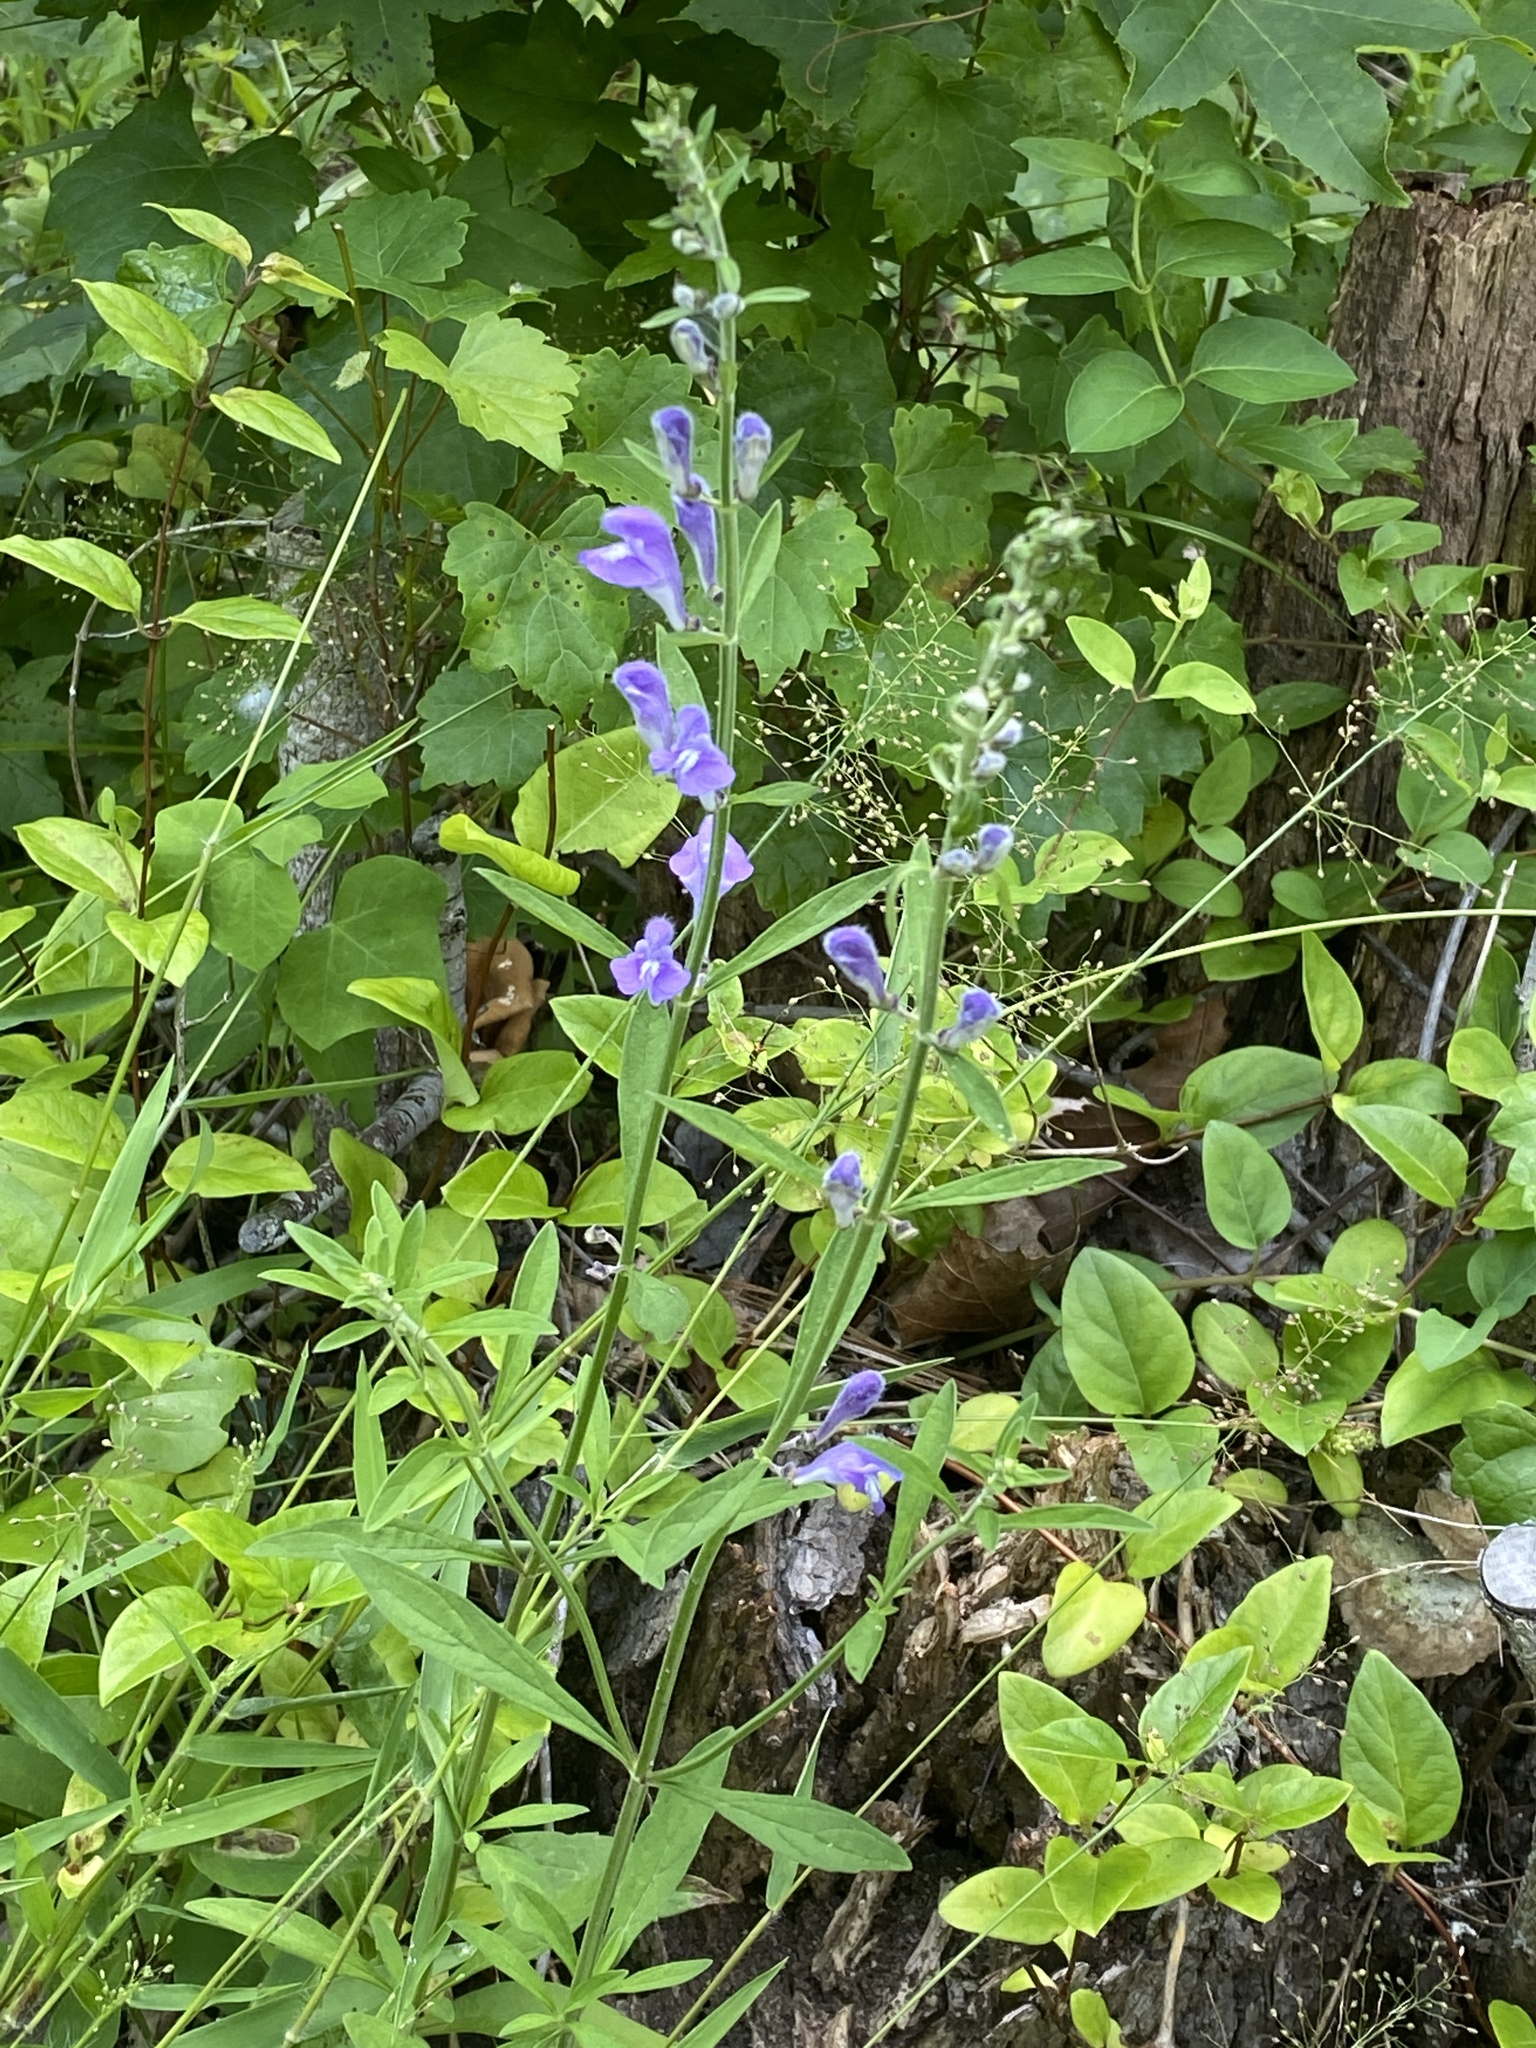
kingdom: Plantae
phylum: Tracheophyta
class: Magnoliopsida
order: Lamiales
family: Lamiaceae
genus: Scutellaria
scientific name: Scutellaria integrifolia
